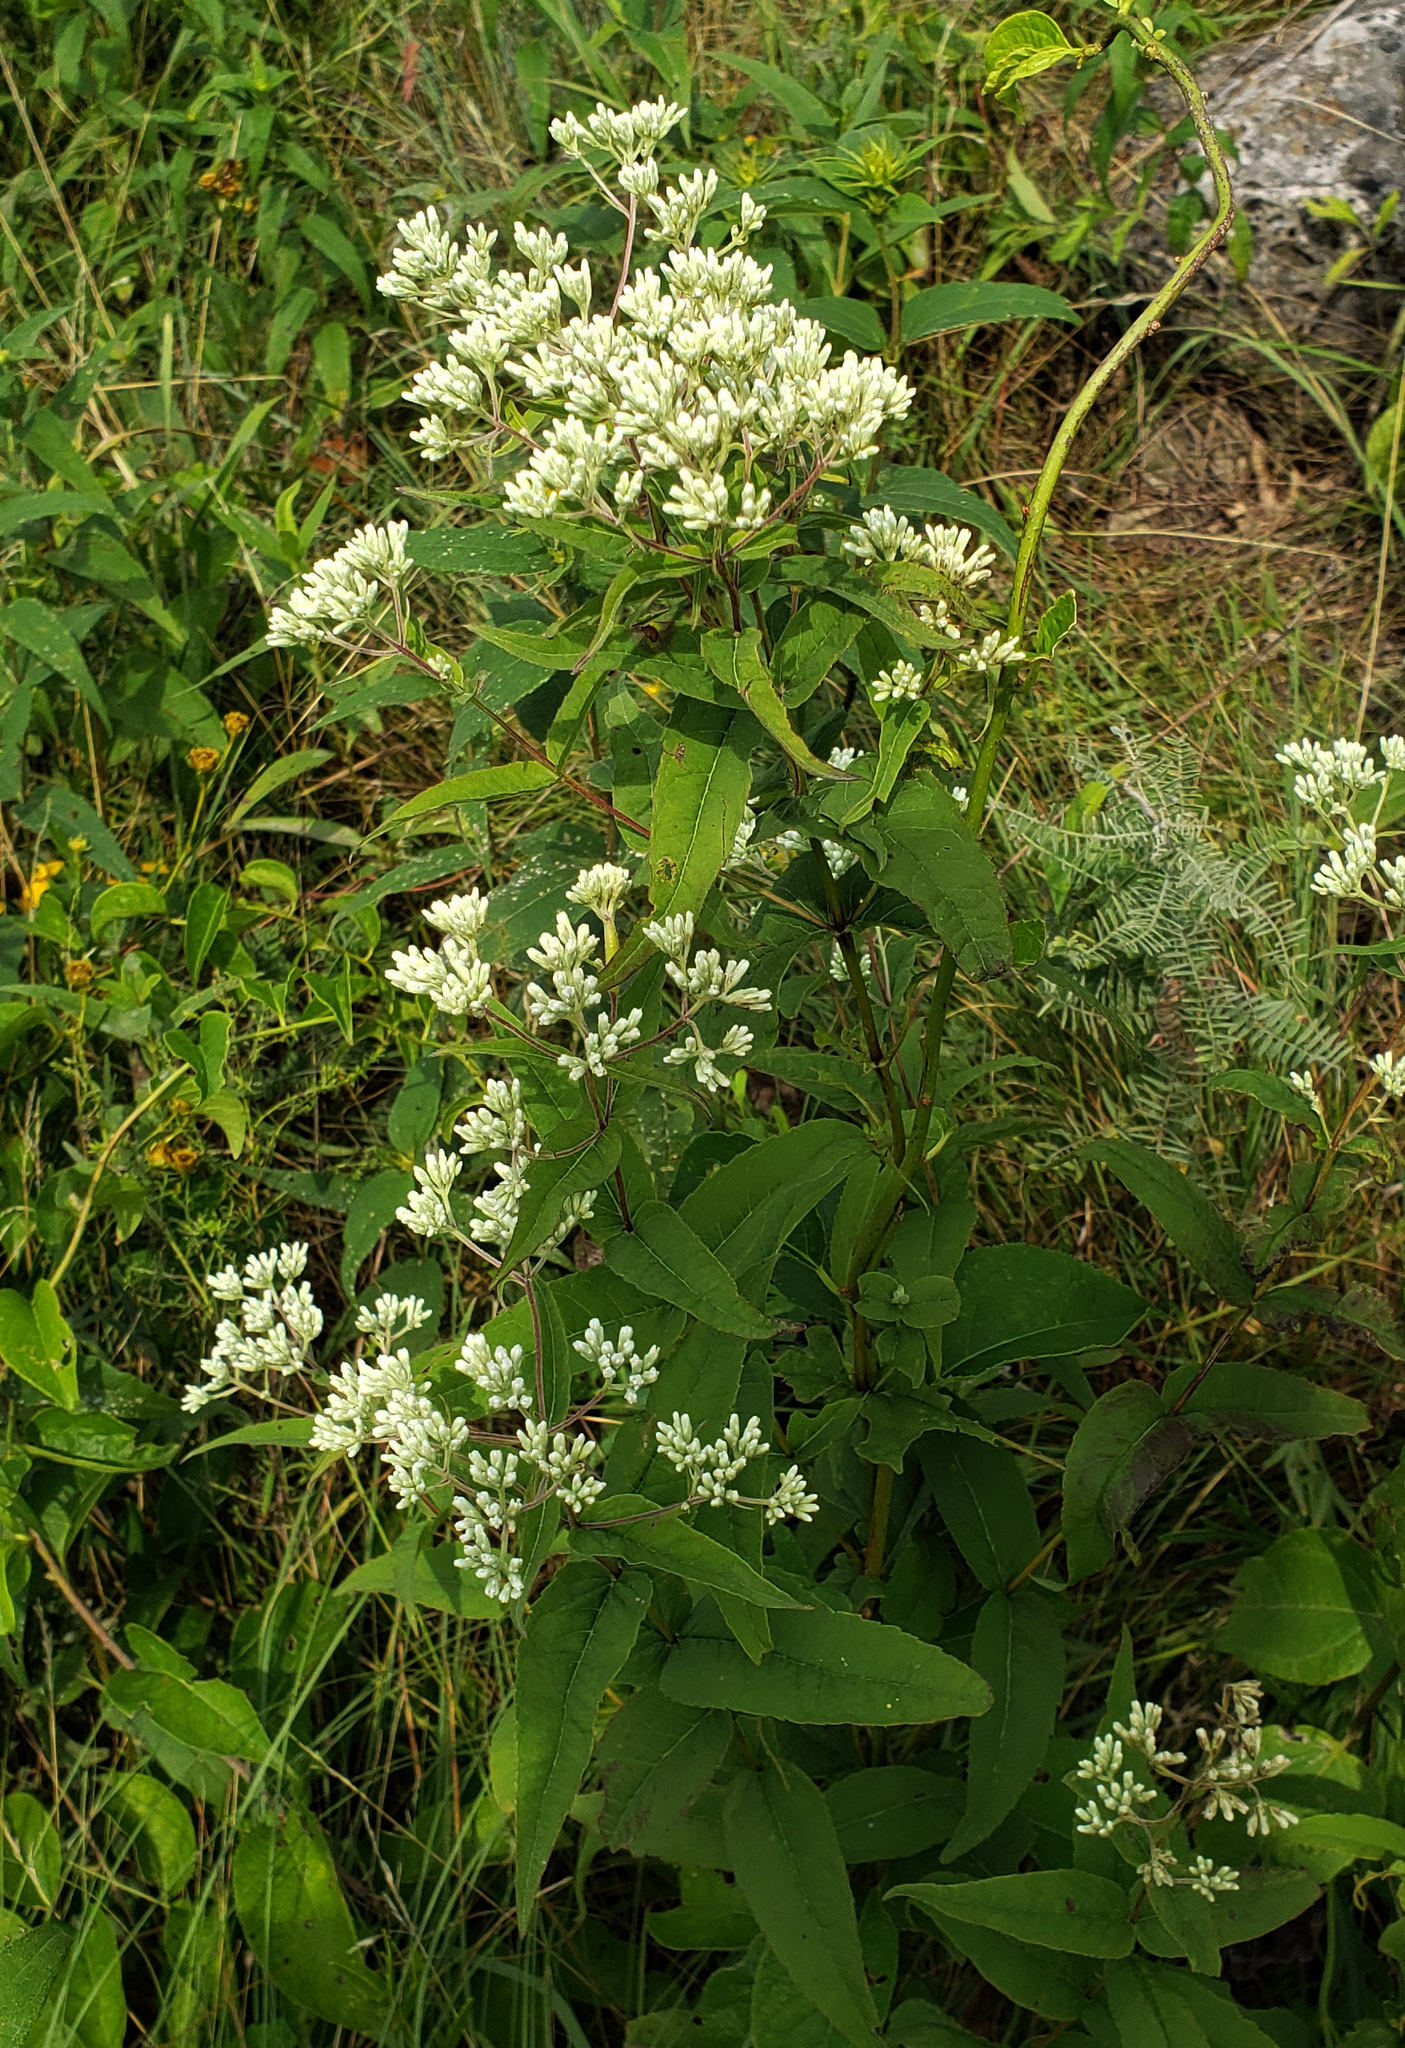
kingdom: Plantae
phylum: Tracheophyta
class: Magnoliopsida
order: Asterales
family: Asteraceae
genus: Eupatorium
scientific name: Eupatorium sessilifolium
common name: Upland boneset
